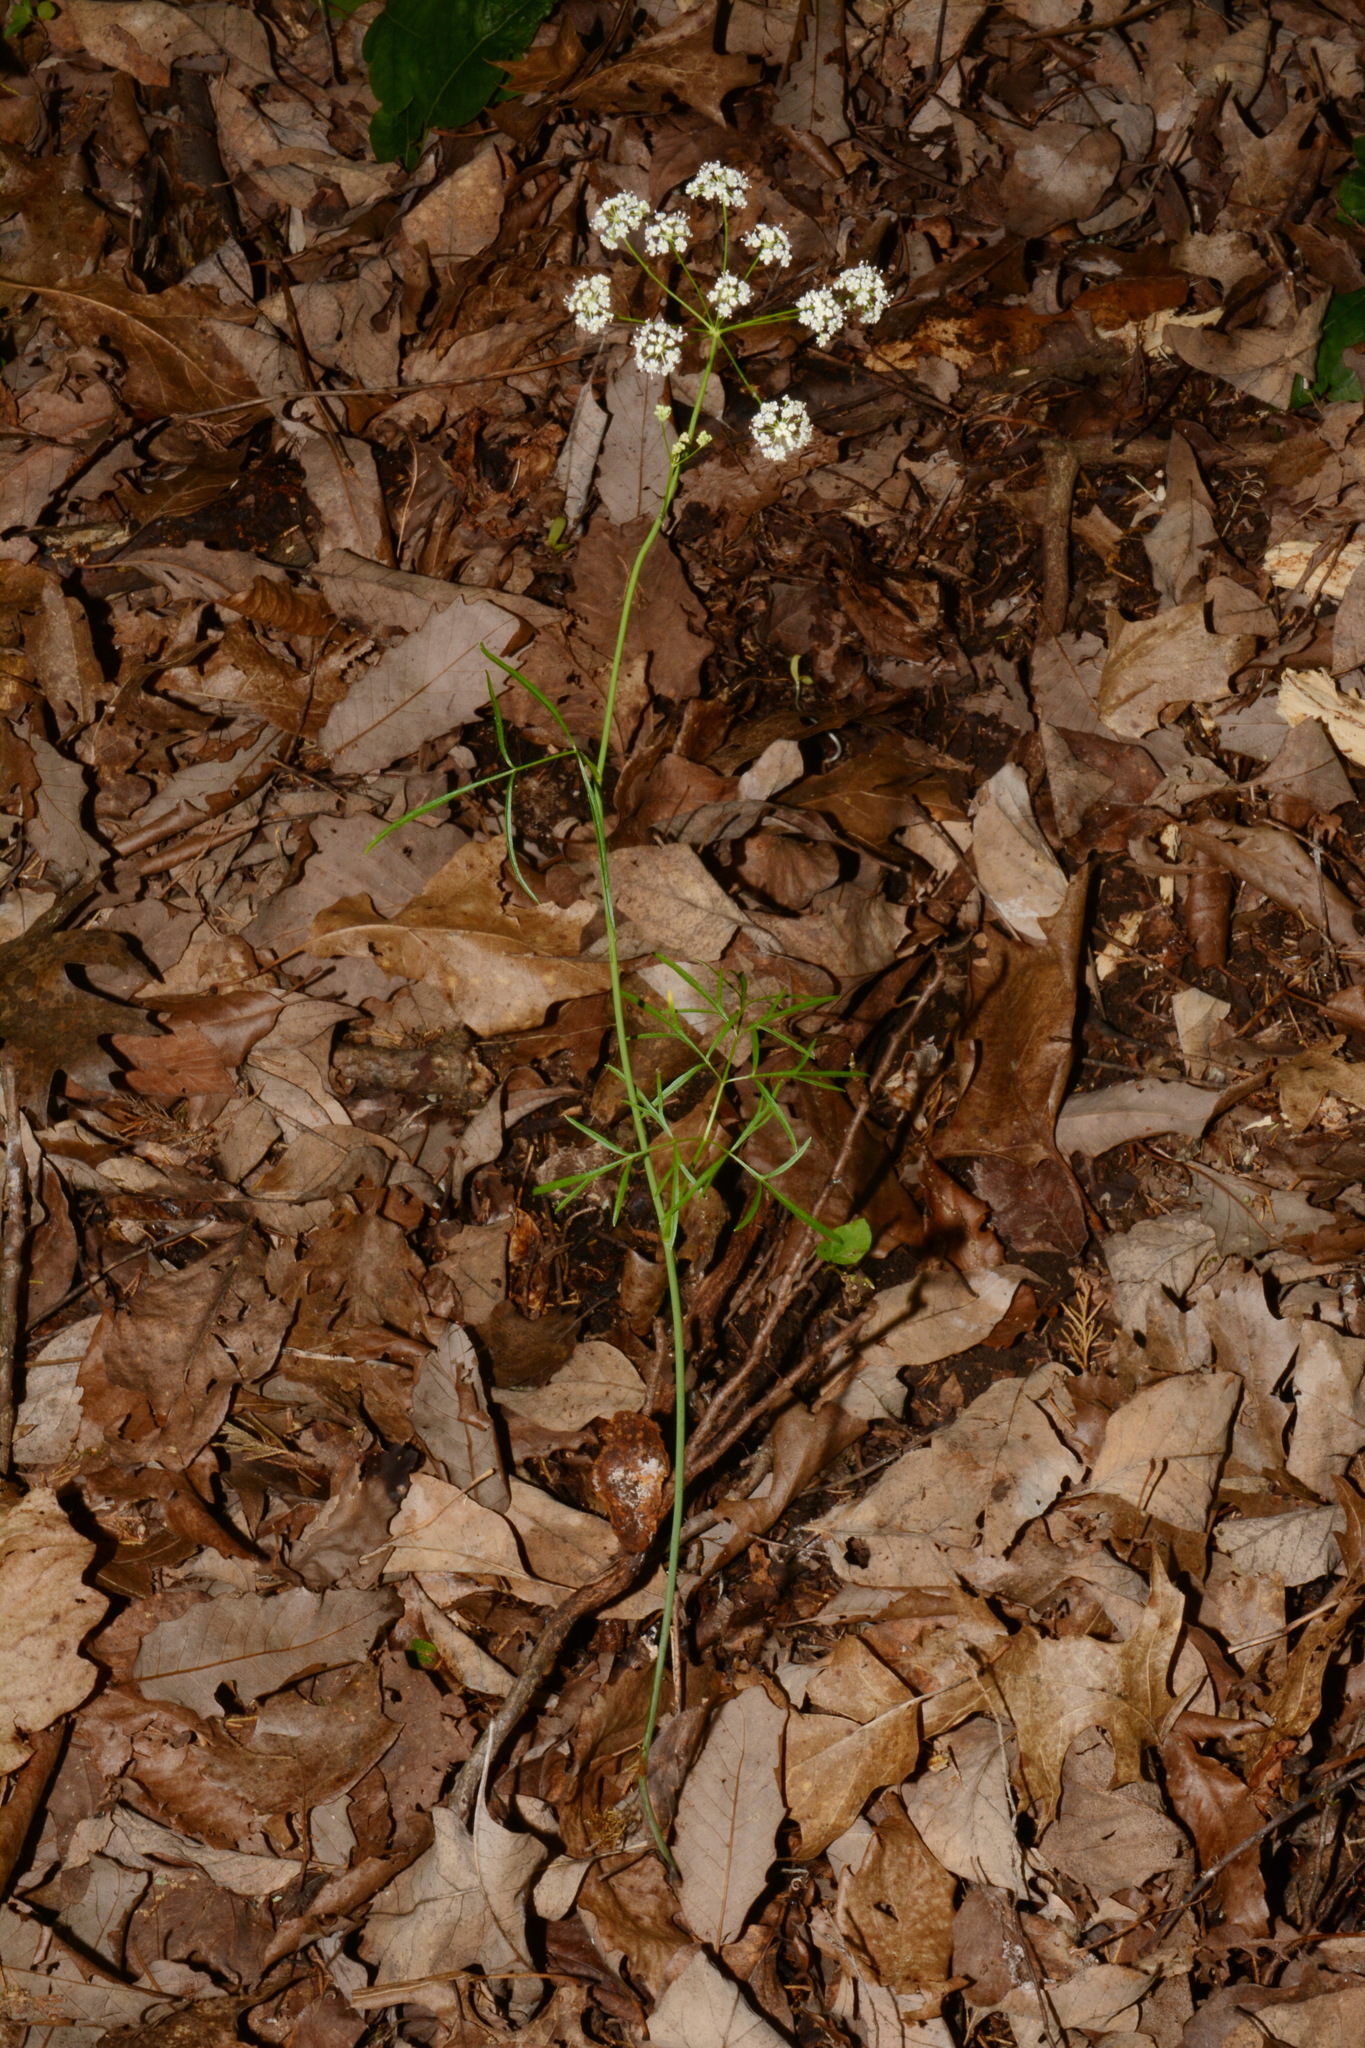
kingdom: Plantae
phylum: Tracheophyta
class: Magnoliopsida
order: Apiales
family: Apiaceae
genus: Perideridia
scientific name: Perideridia americana
